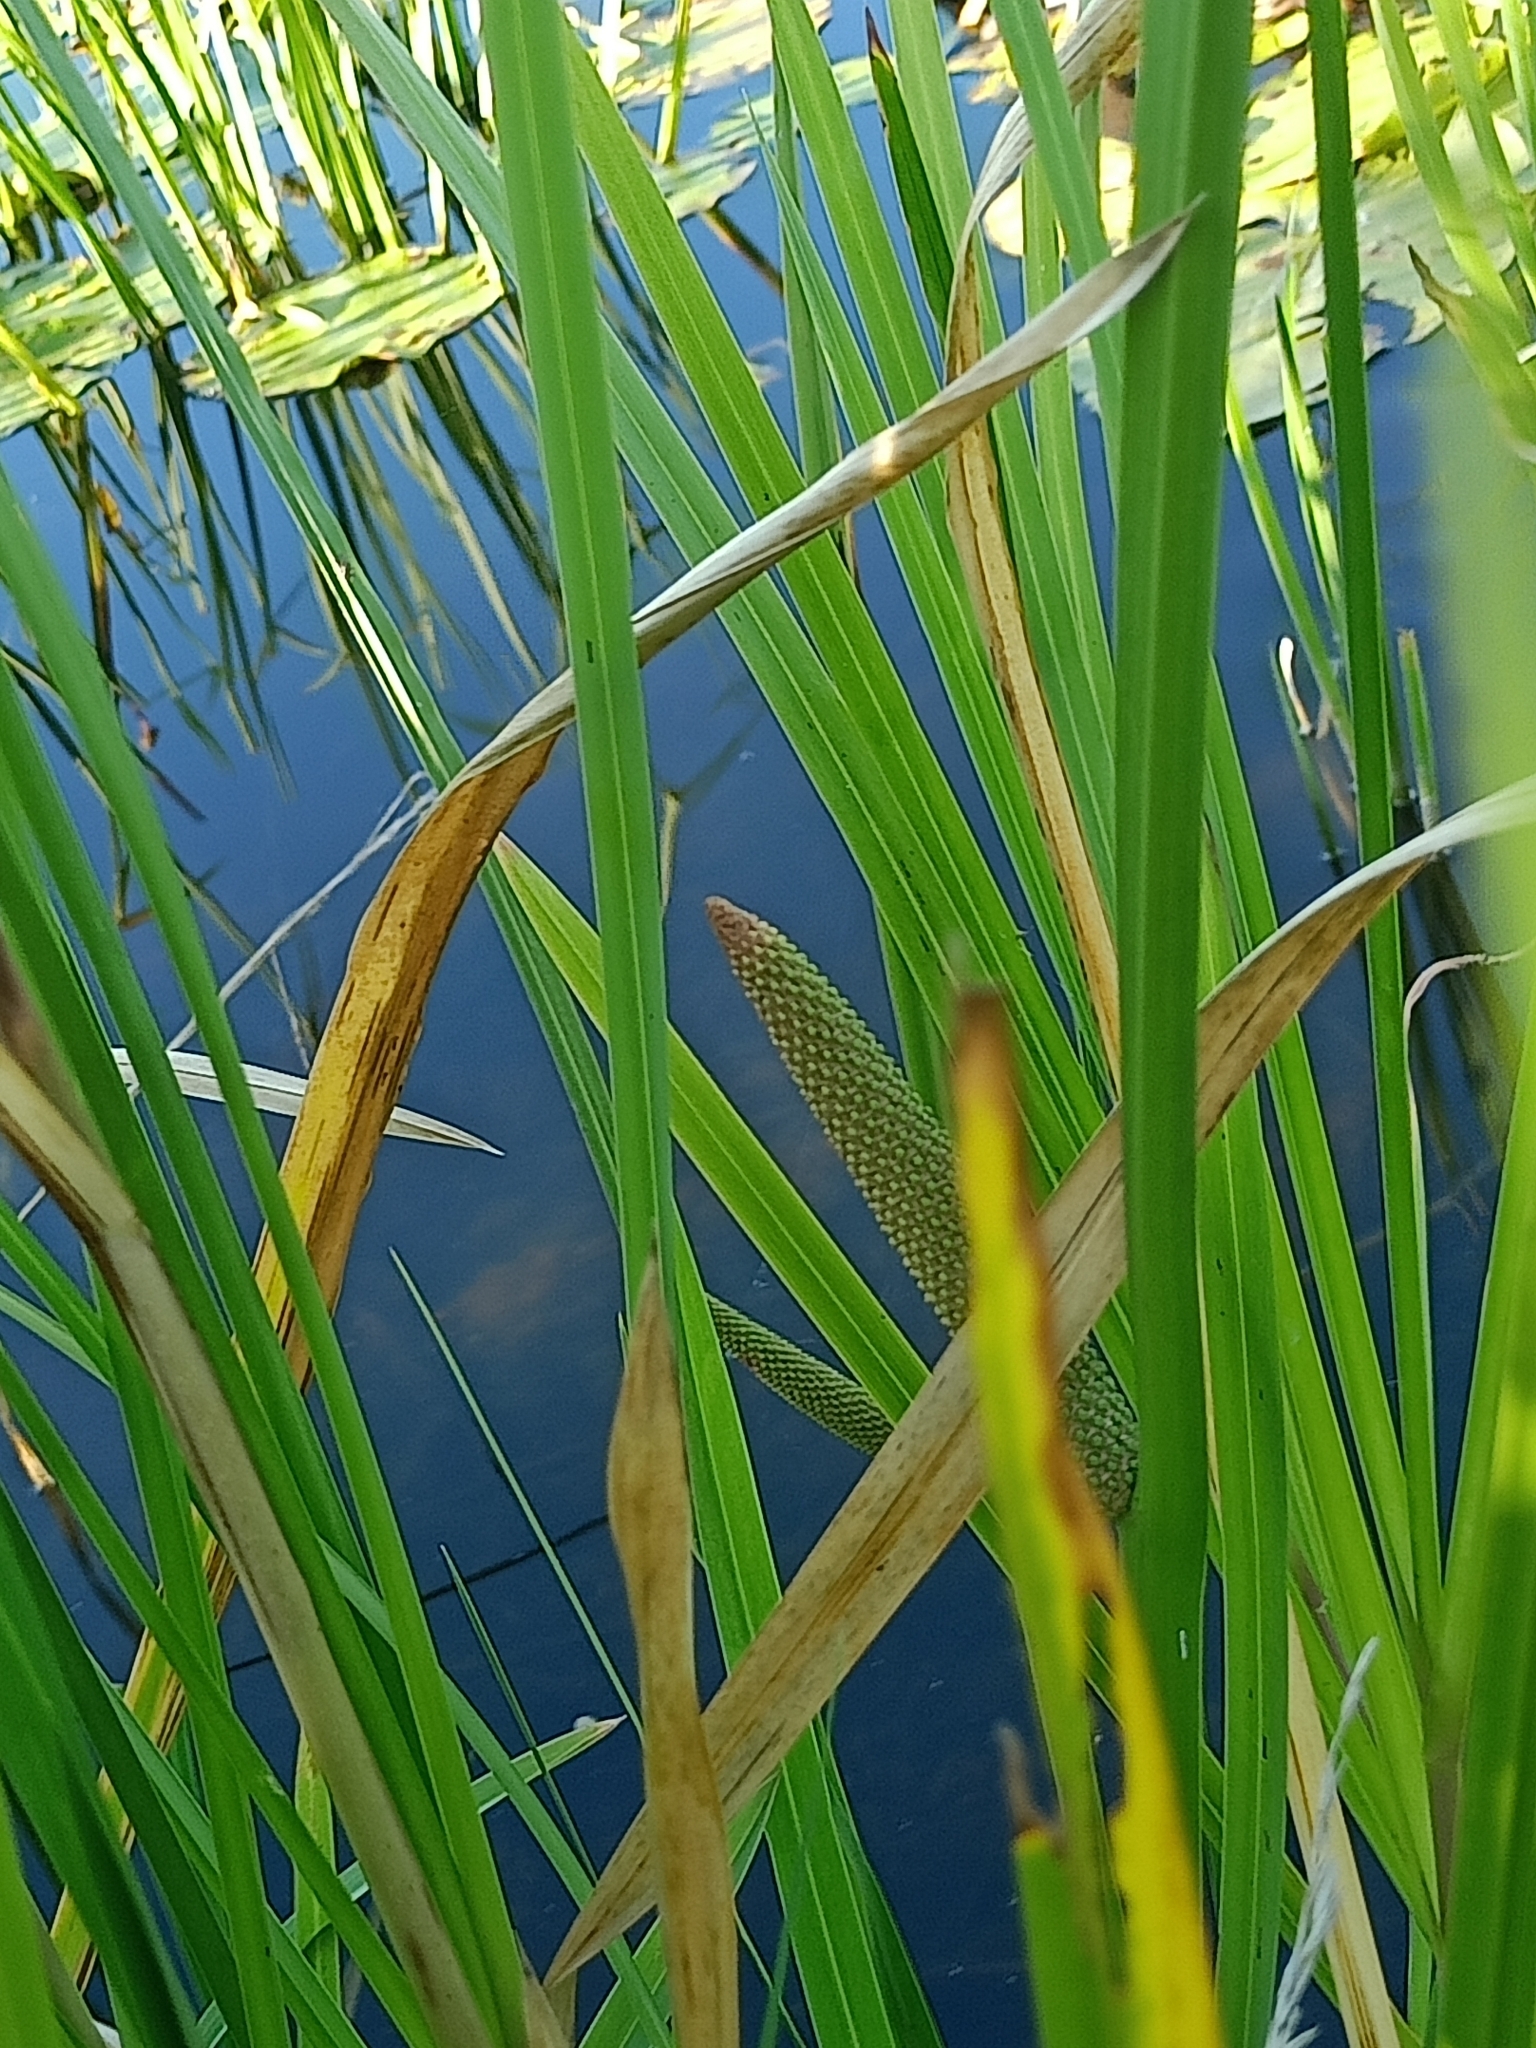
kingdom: Plantae
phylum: Tracheophyta
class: Liliopsida
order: Acorales
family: Acoraceae
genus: Acorus
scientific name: Acorus calamus
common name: Sweet-flag
